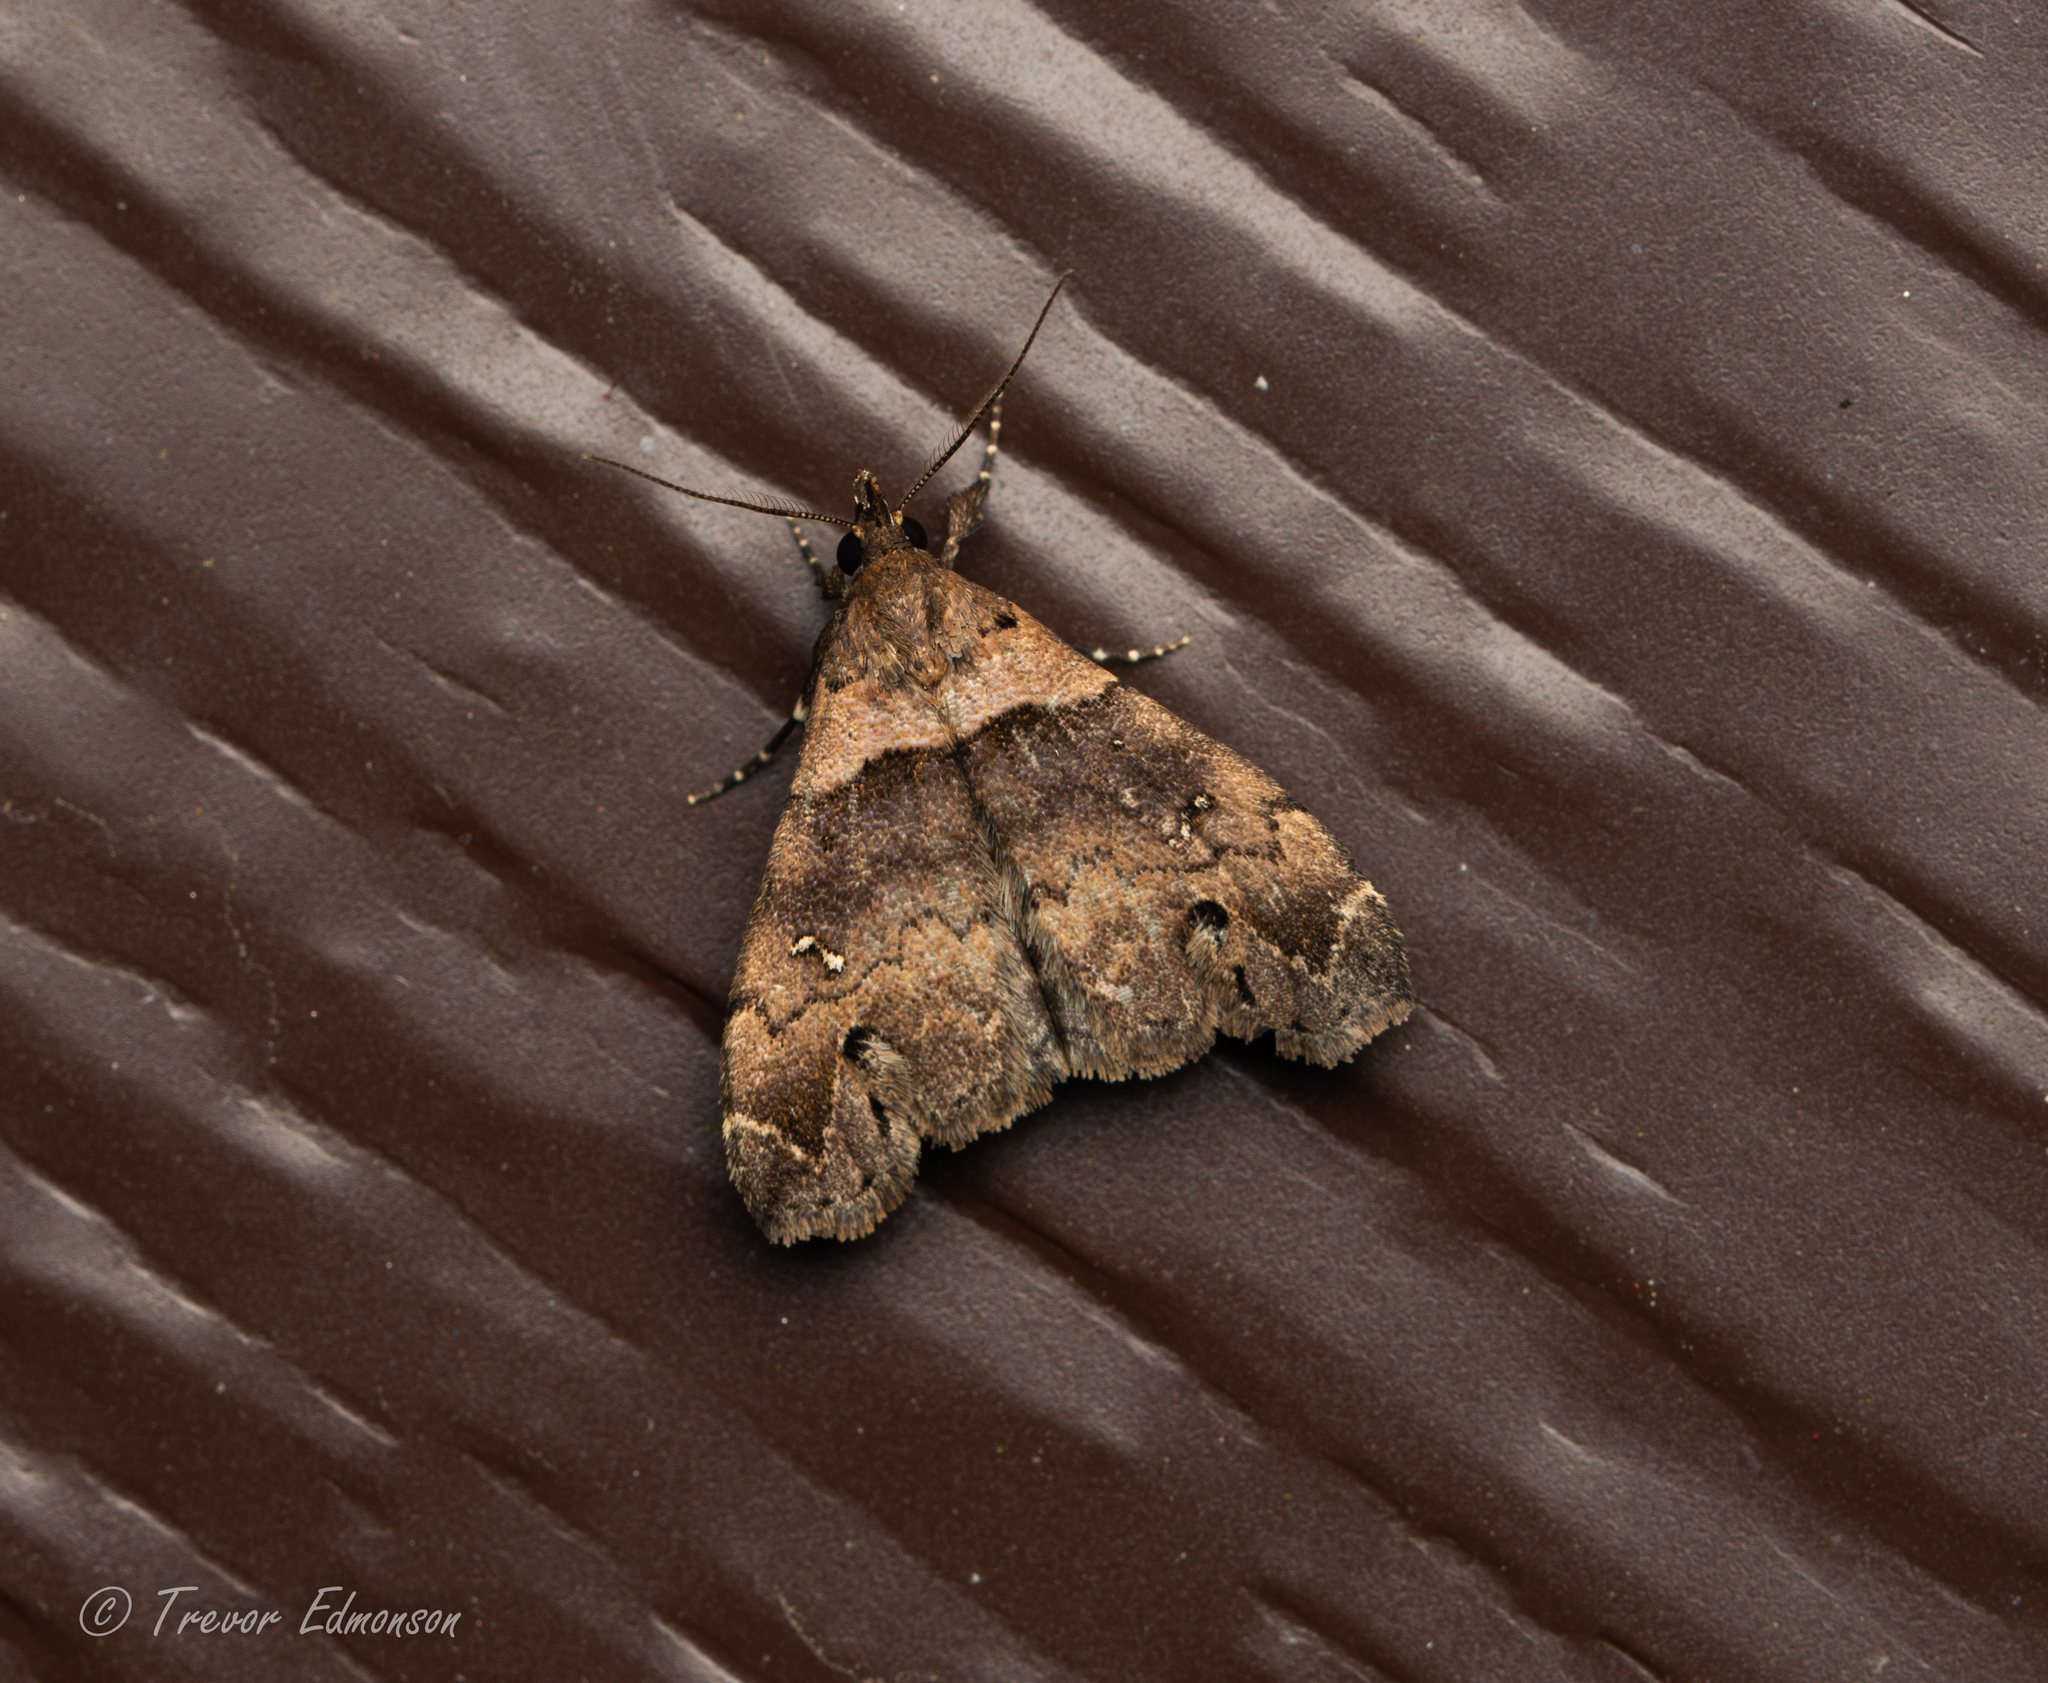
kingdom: Animalia
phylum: Arthropoda
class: Insecta
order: Lepidoptera
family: Erebidae
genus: Lascoria
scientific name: Lascoria ambigualis
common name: Ambiguous moth
